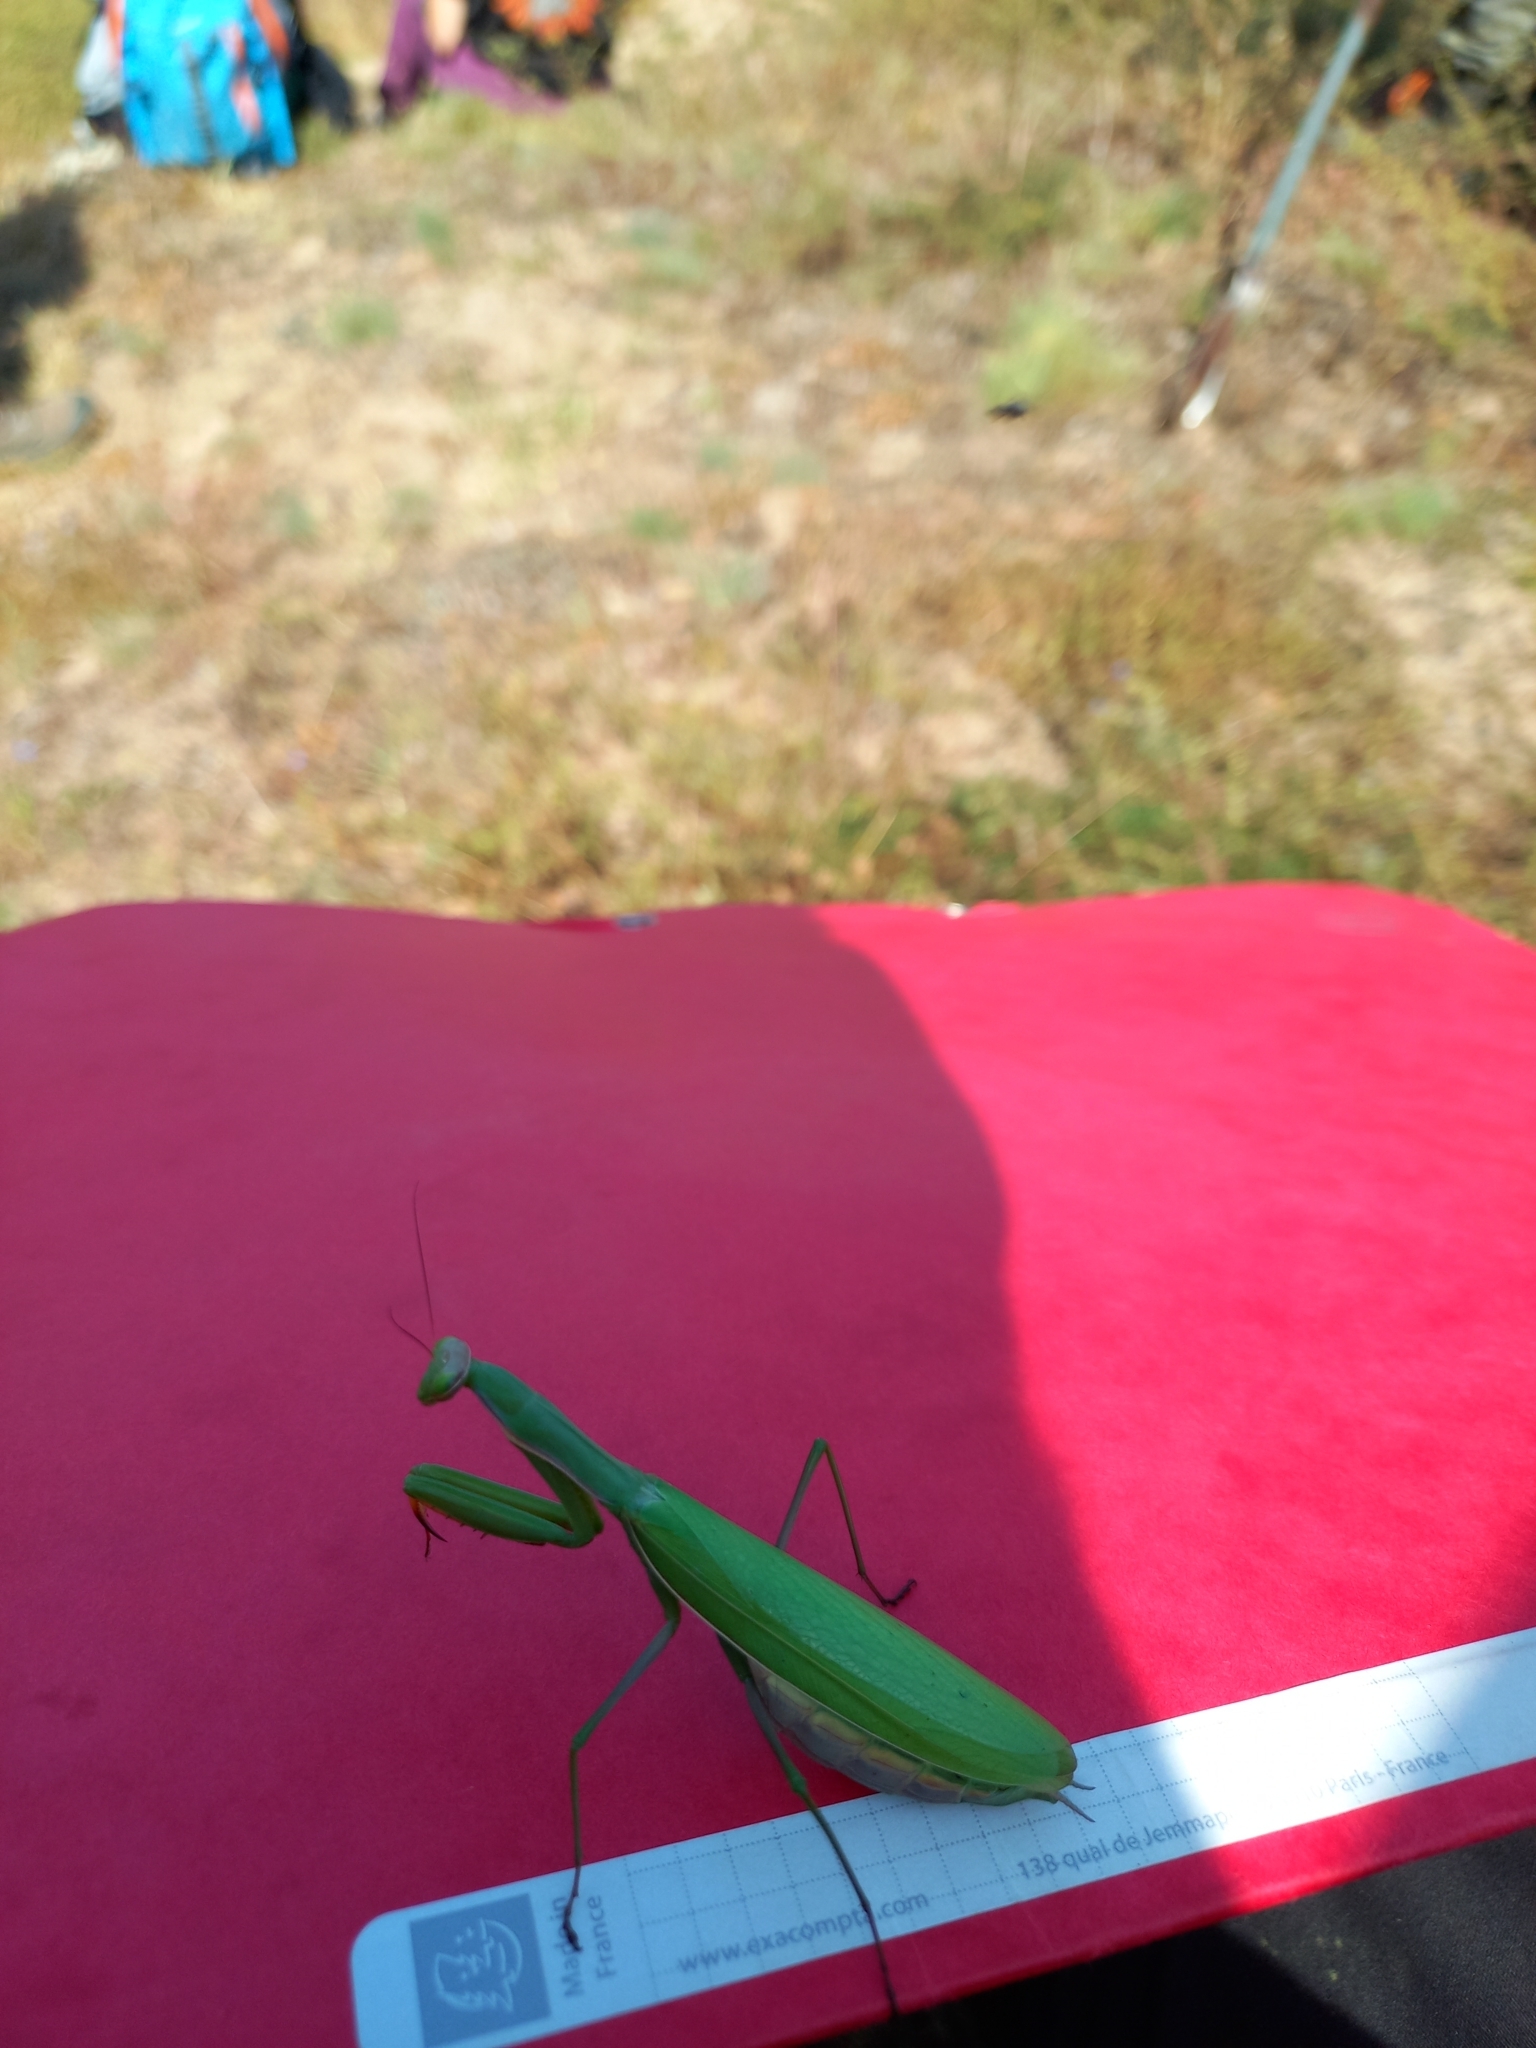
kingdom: Animalia
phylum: Arthropoda
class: Insecta
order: Mantodea
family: Mantidae
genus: Mantis
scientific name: Mantis religiosa
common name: Praying mantis
